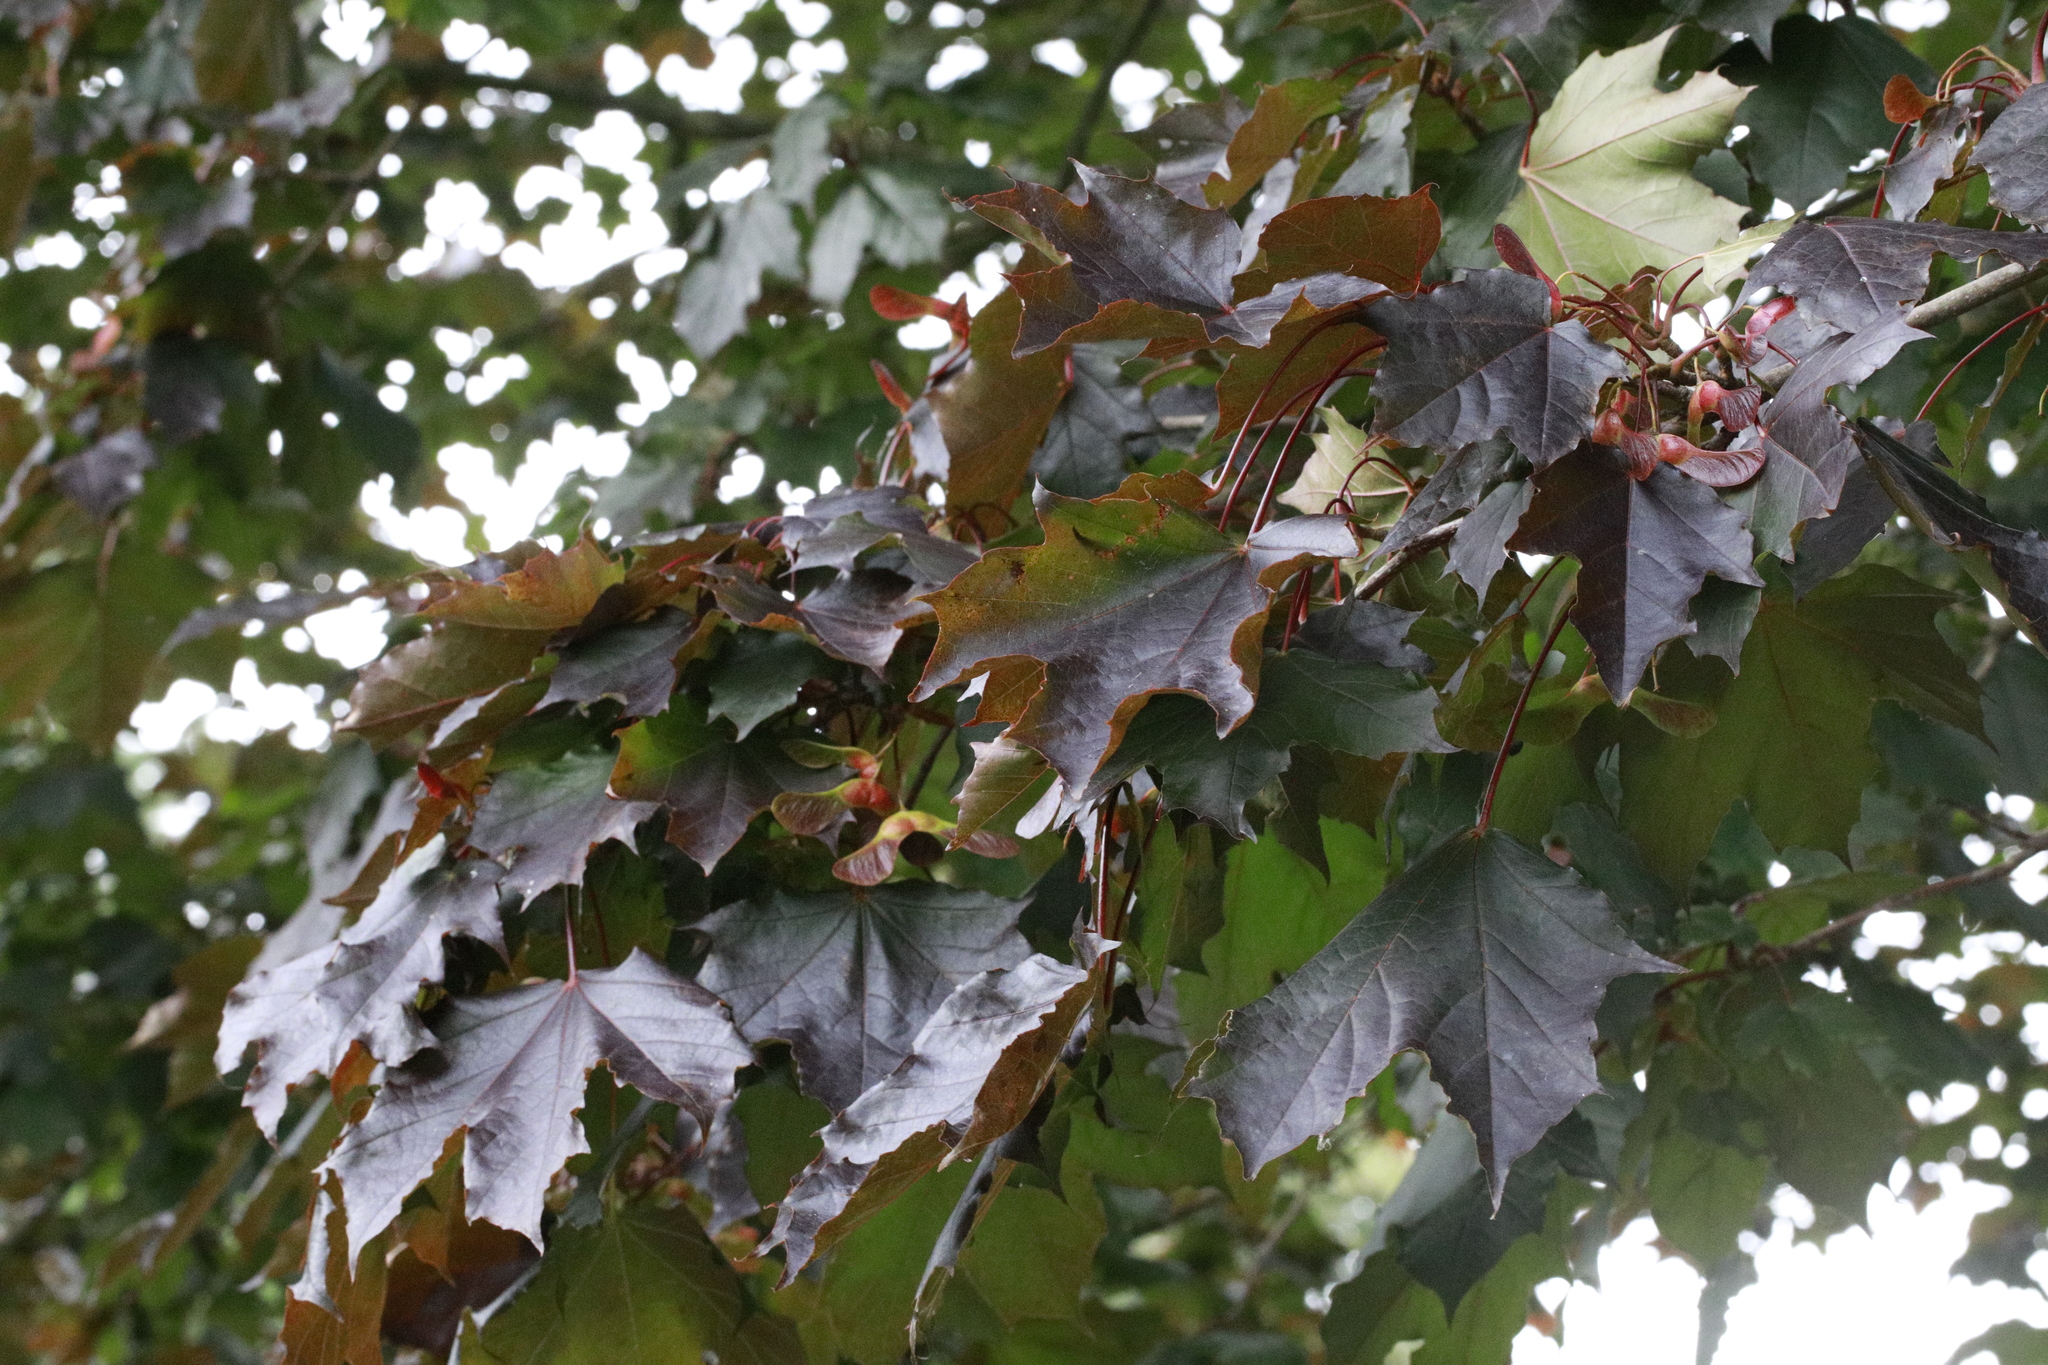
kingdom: Plantae
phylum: Tracheophyta
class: Magnoliopsida
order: Sapindales
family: Sapindaceae
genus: Acer
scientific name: Acer platanoides
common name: Norway maple
